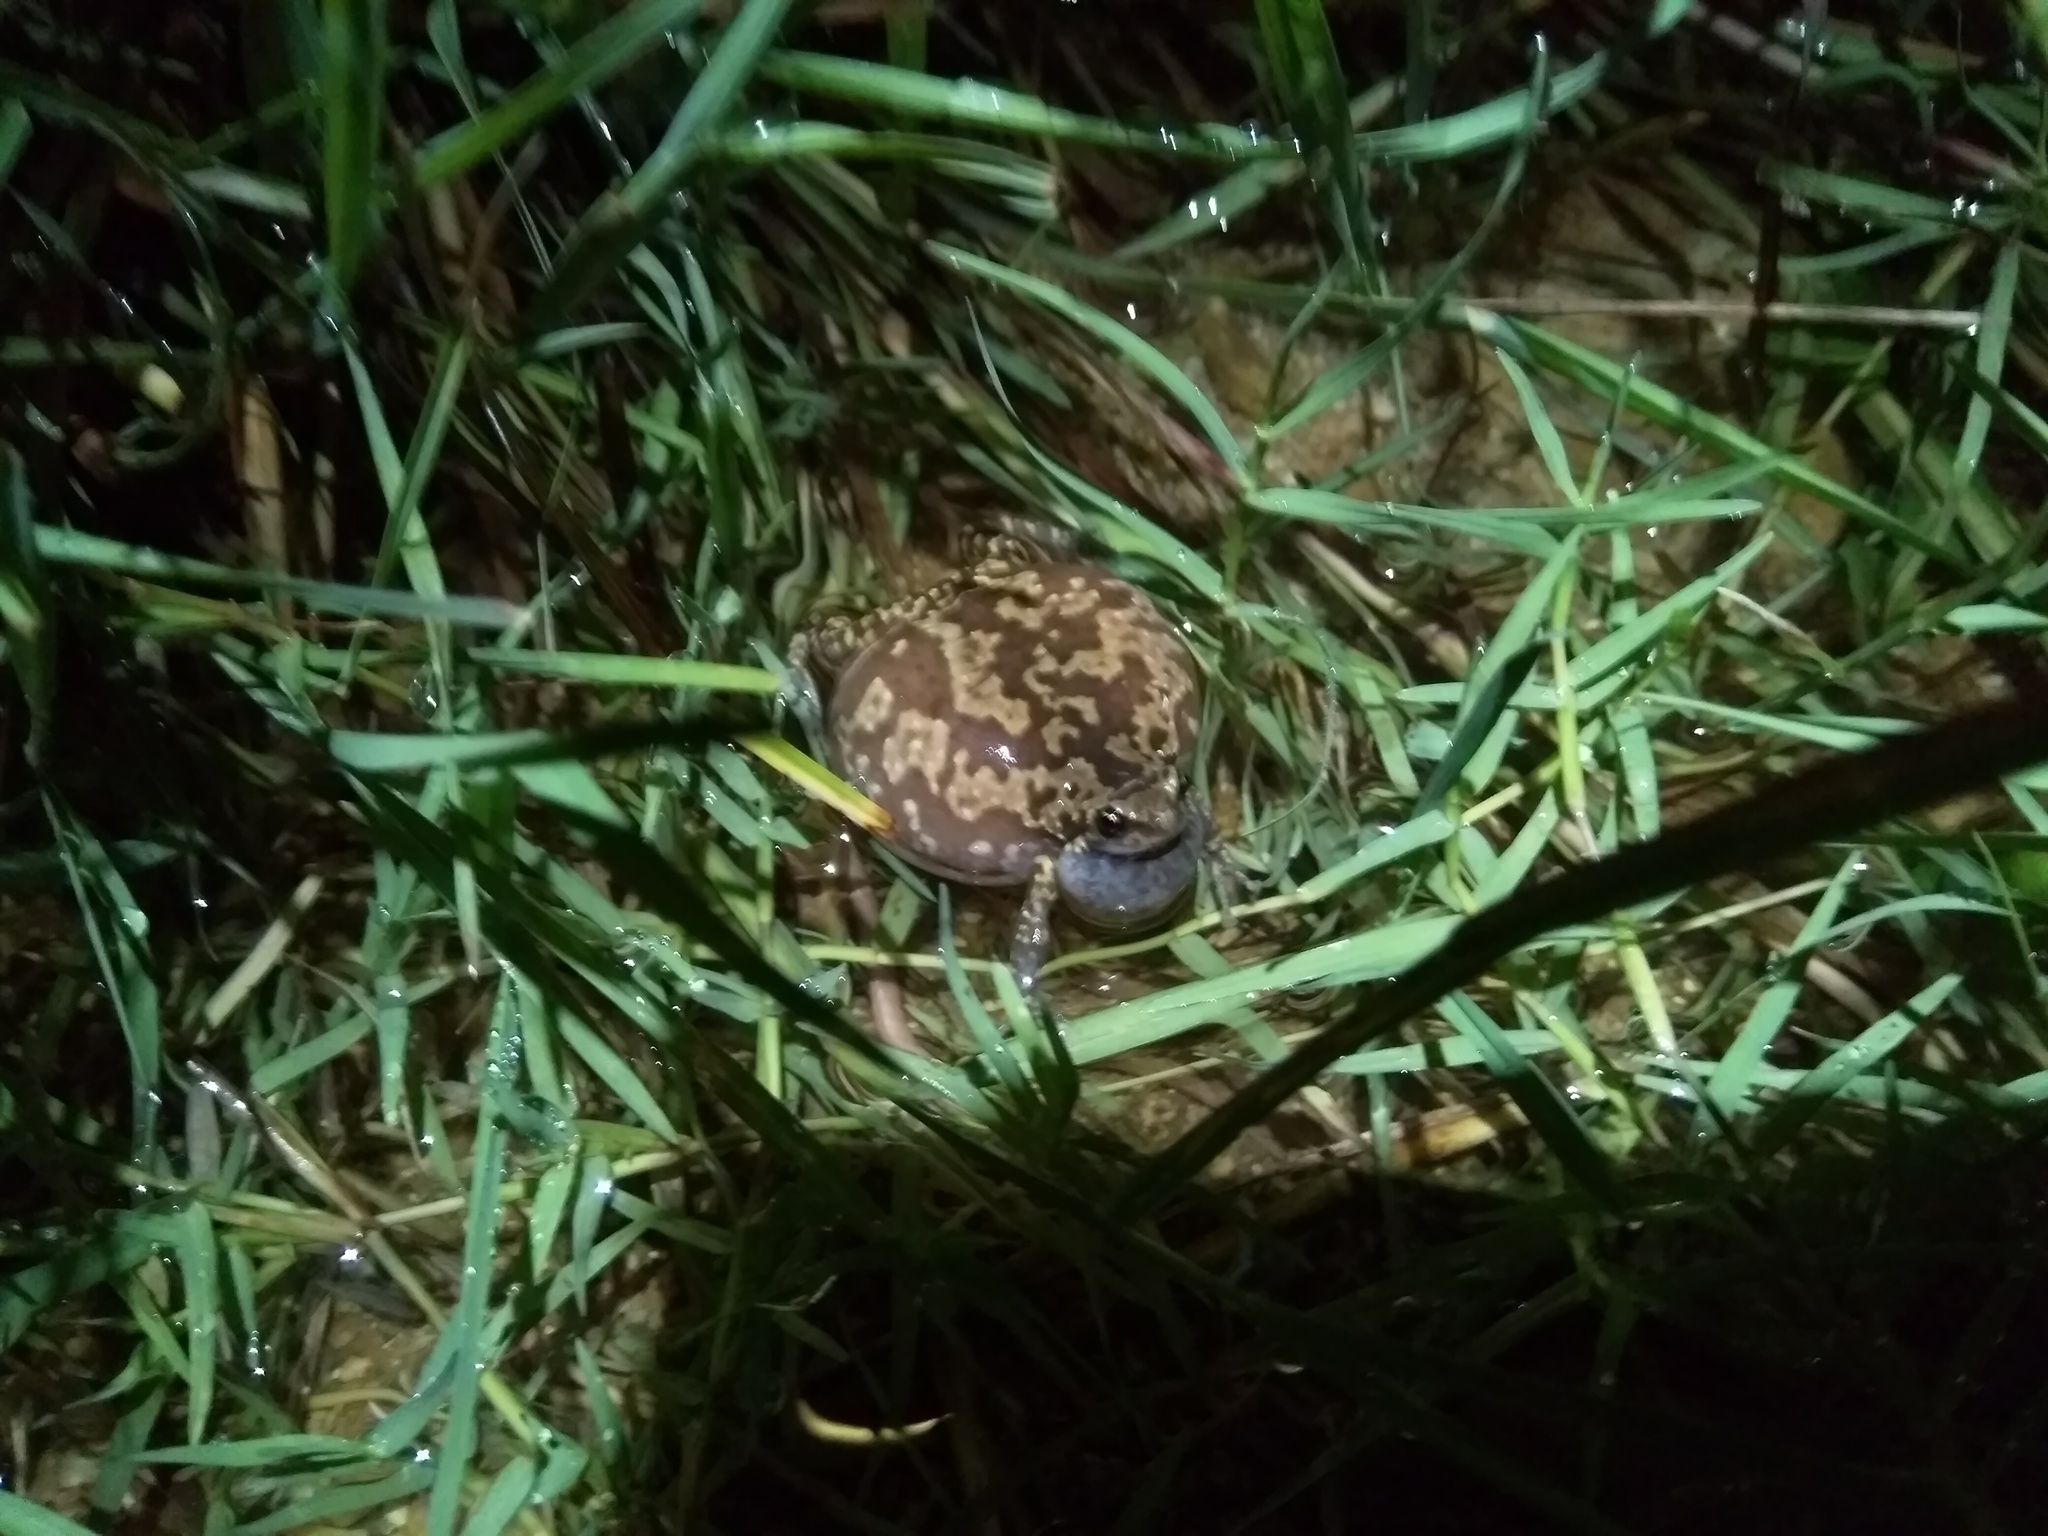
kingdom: Animalia
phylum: Chordata
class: Amphibia
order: Anura
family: Microhylidae
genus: Uperodon
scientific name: Uperodon variegatus
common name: Eluru dot frog
